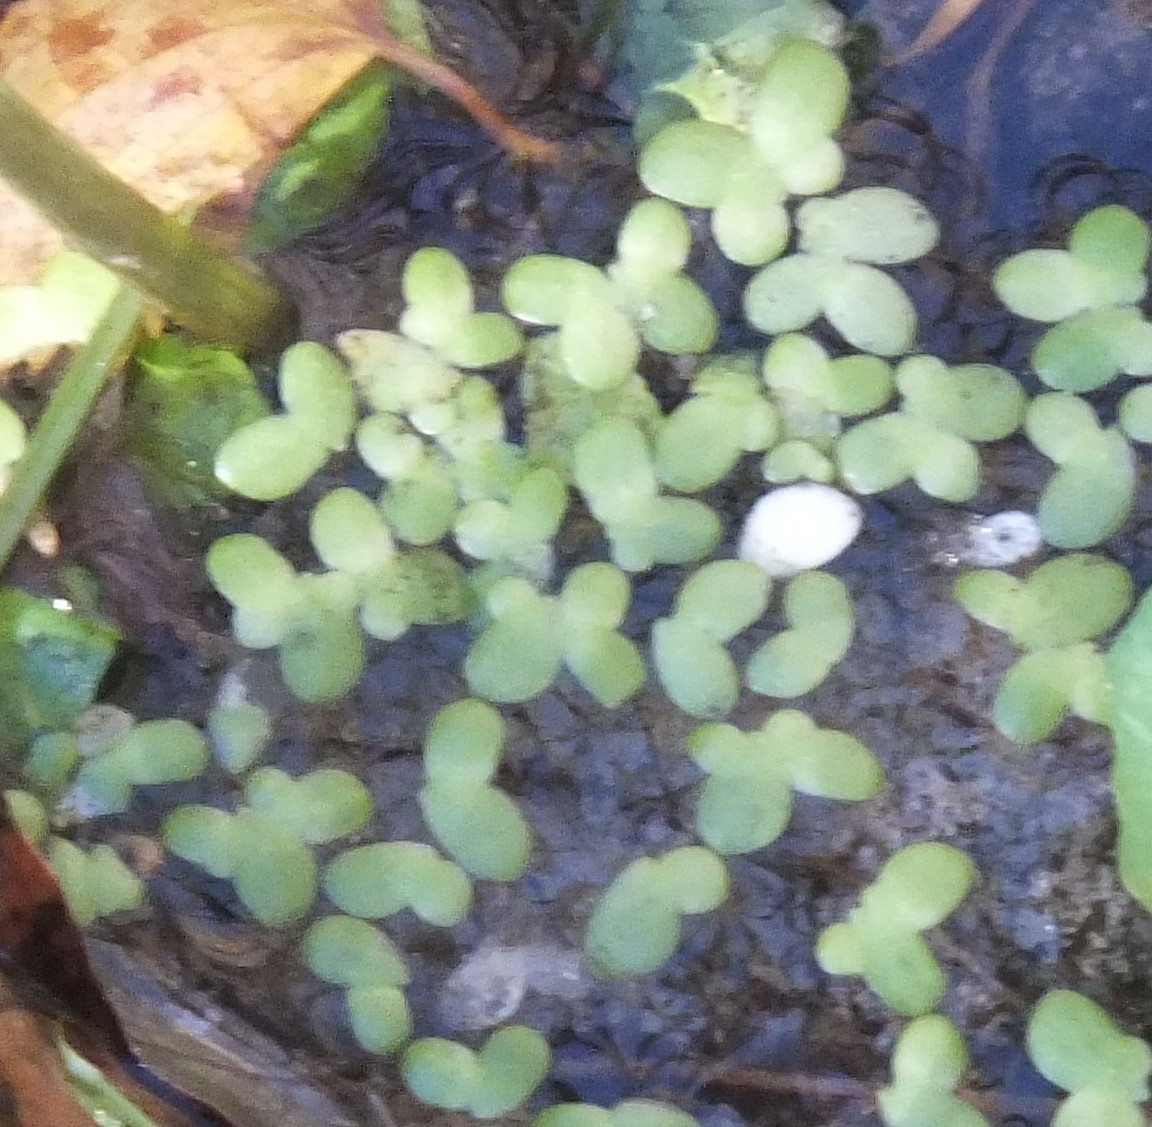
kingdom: Plantae
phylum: Tracheophyta
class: Liliopsida
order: Alismatales
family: Araceae
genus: Lemna
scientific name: Lemna minor
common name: Common duckweed
